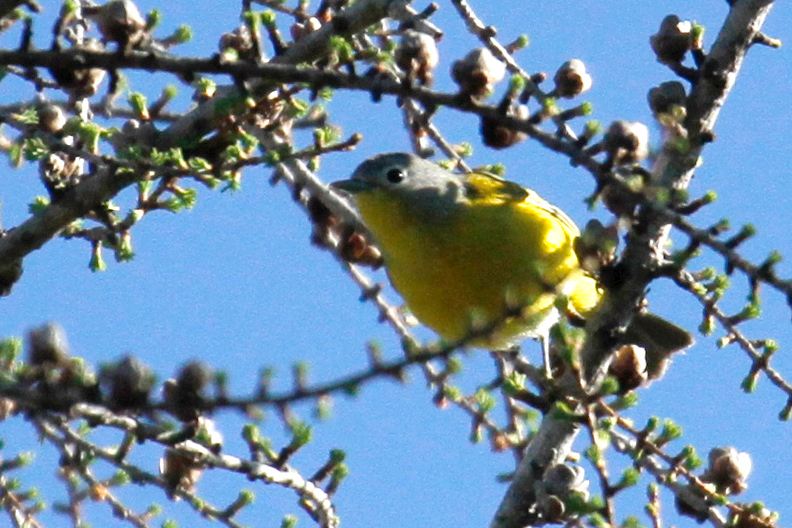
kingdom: Animalia
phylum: Chordata
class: Aves
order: Passeriformes
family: Parulidae
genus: Leiothlypis
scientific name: Leiothlypis ruficapilla
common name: Nashville warbler
